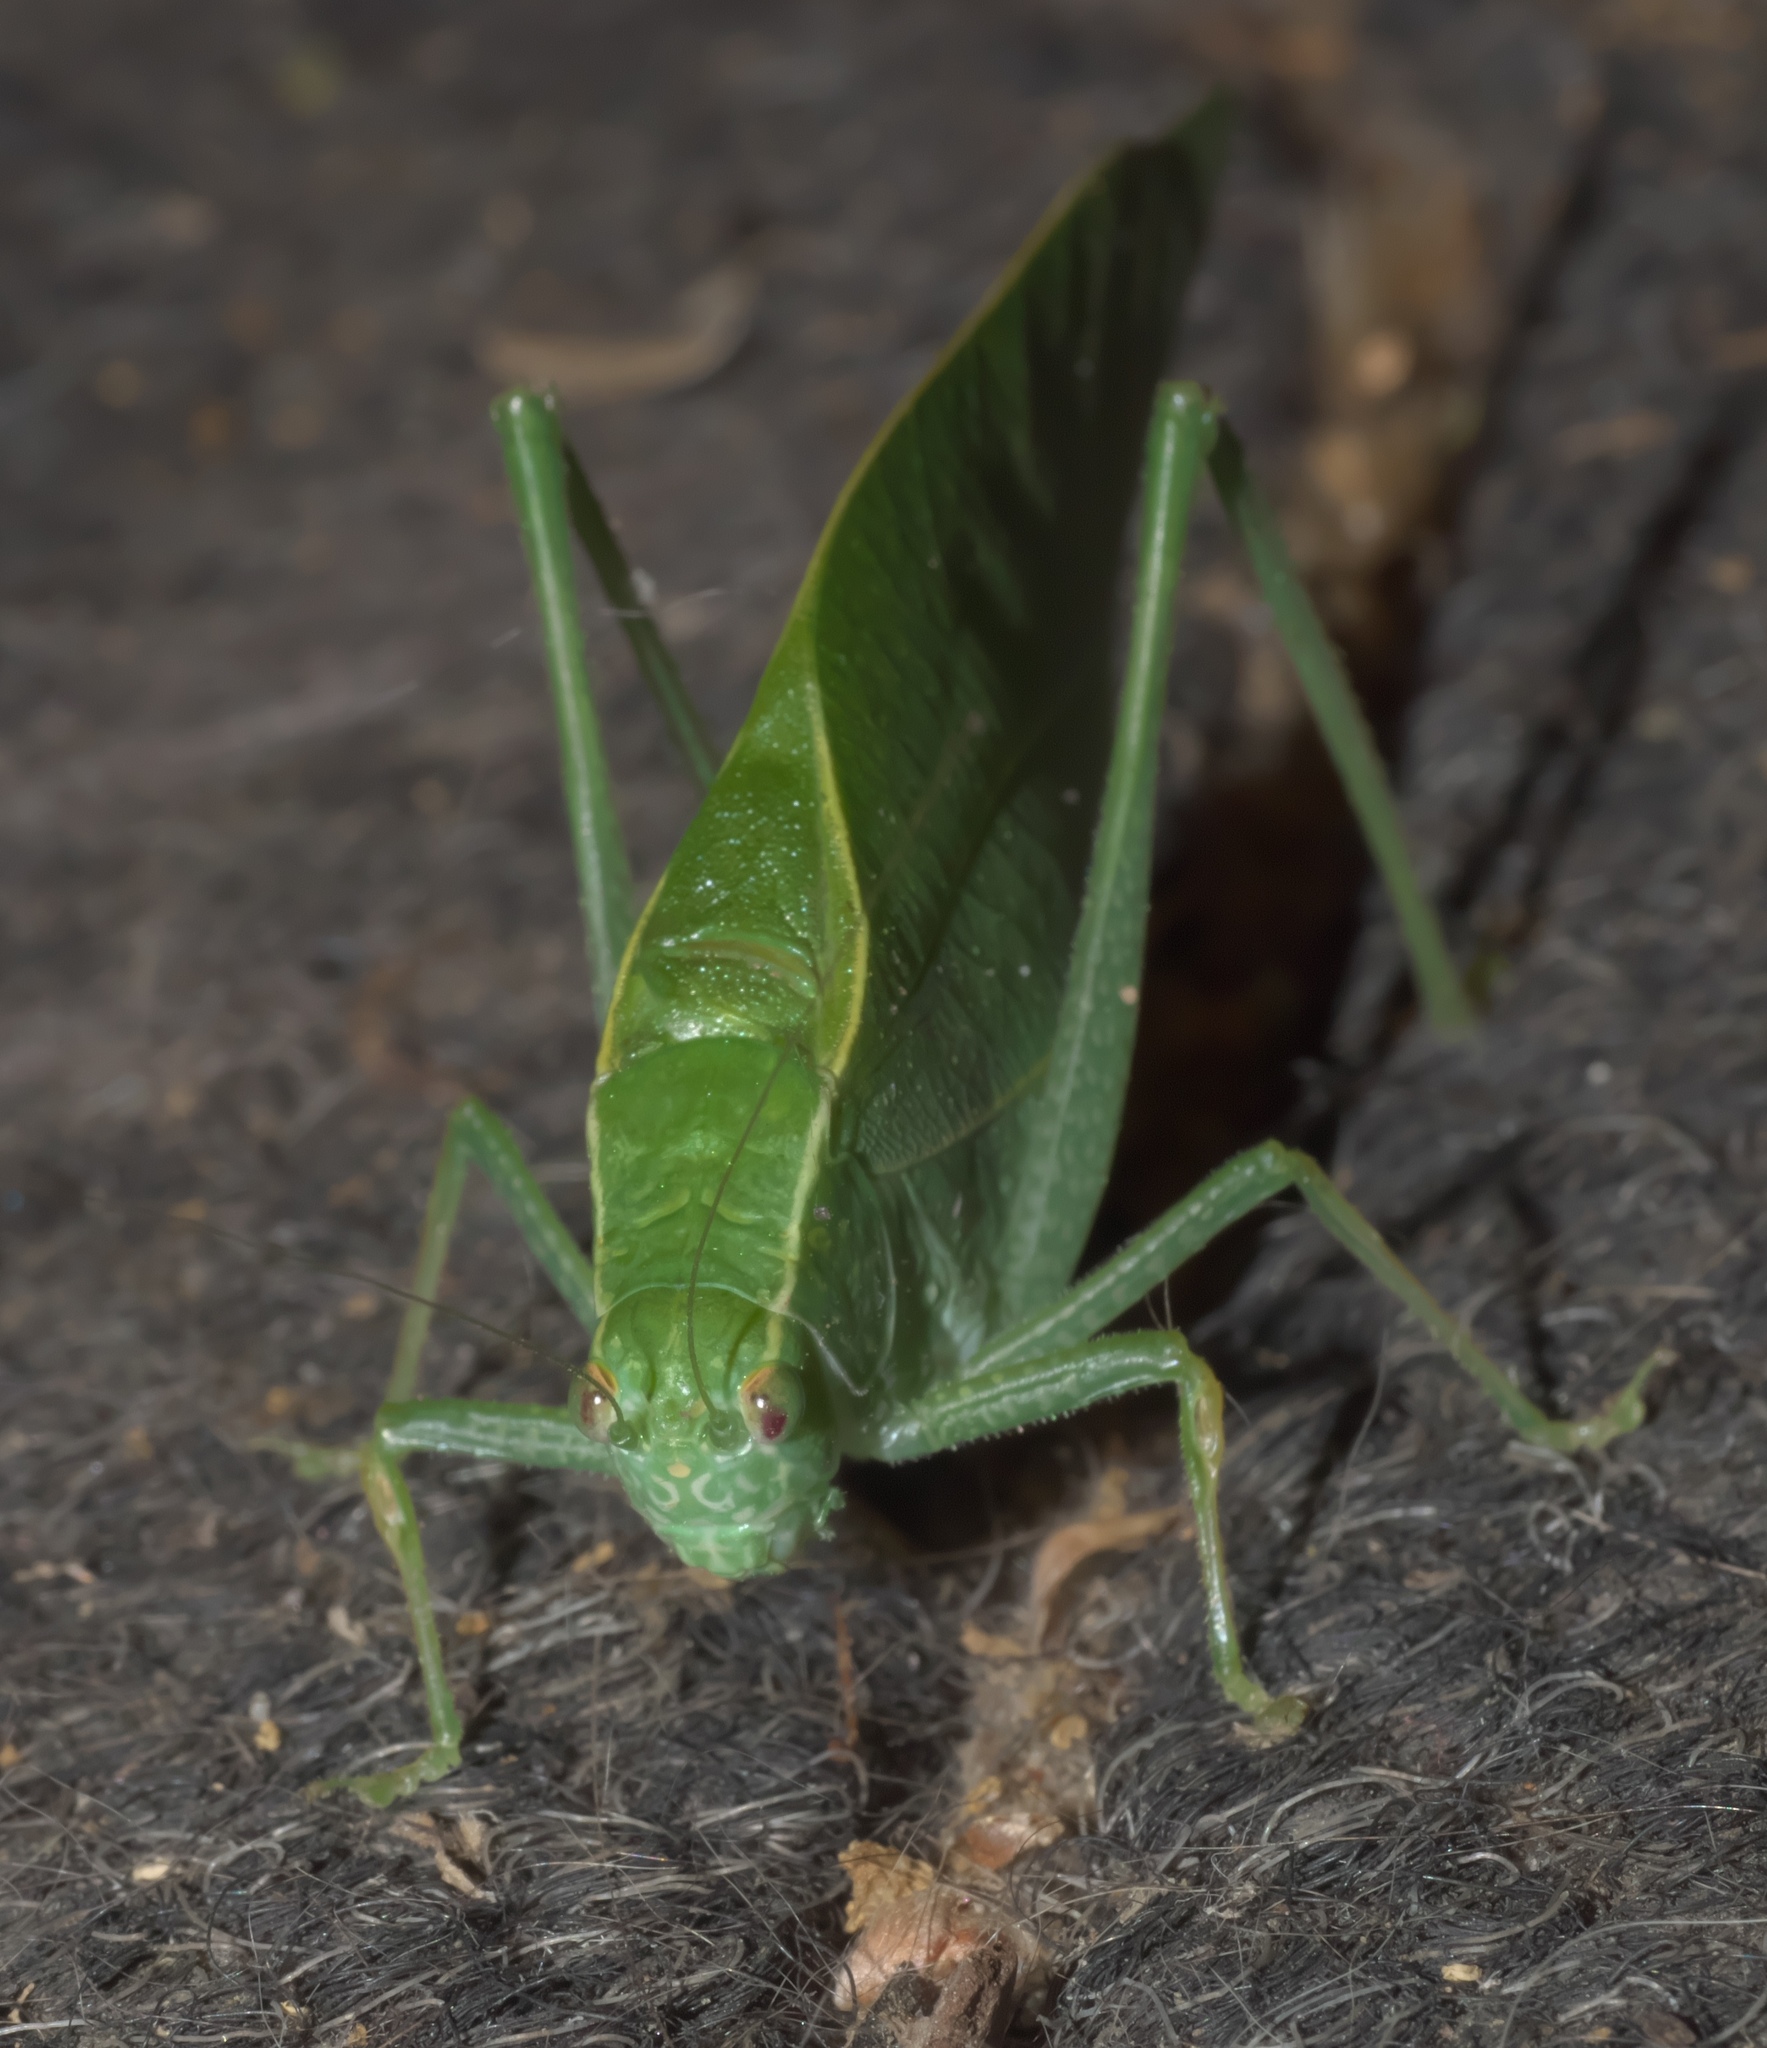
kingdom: Animalia
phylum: Arthropoda
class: Insecta
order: Orthoptera
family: Tettigoniidae
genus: Microcentrum
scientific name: Microcentrum rhombifolium
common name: Broad-winged katydid
